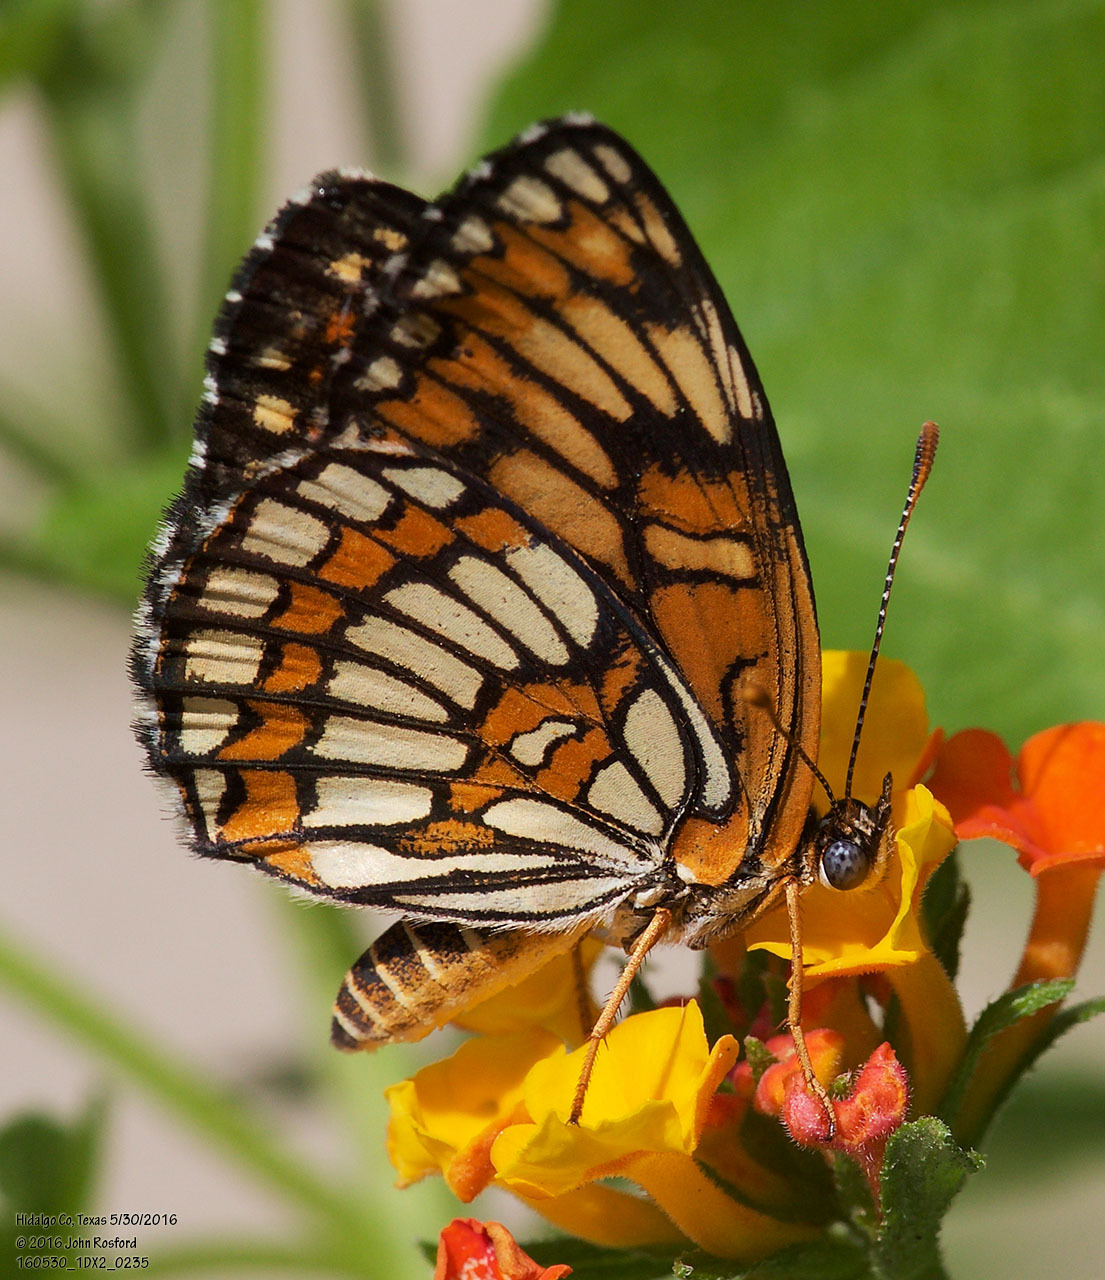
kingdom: Animalia
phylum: Arthropoda
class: Insecta
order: Lepidoptera
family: Nymphalidae
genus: Thessalia
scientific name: Thessalia theona
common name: Nymphalid moth
